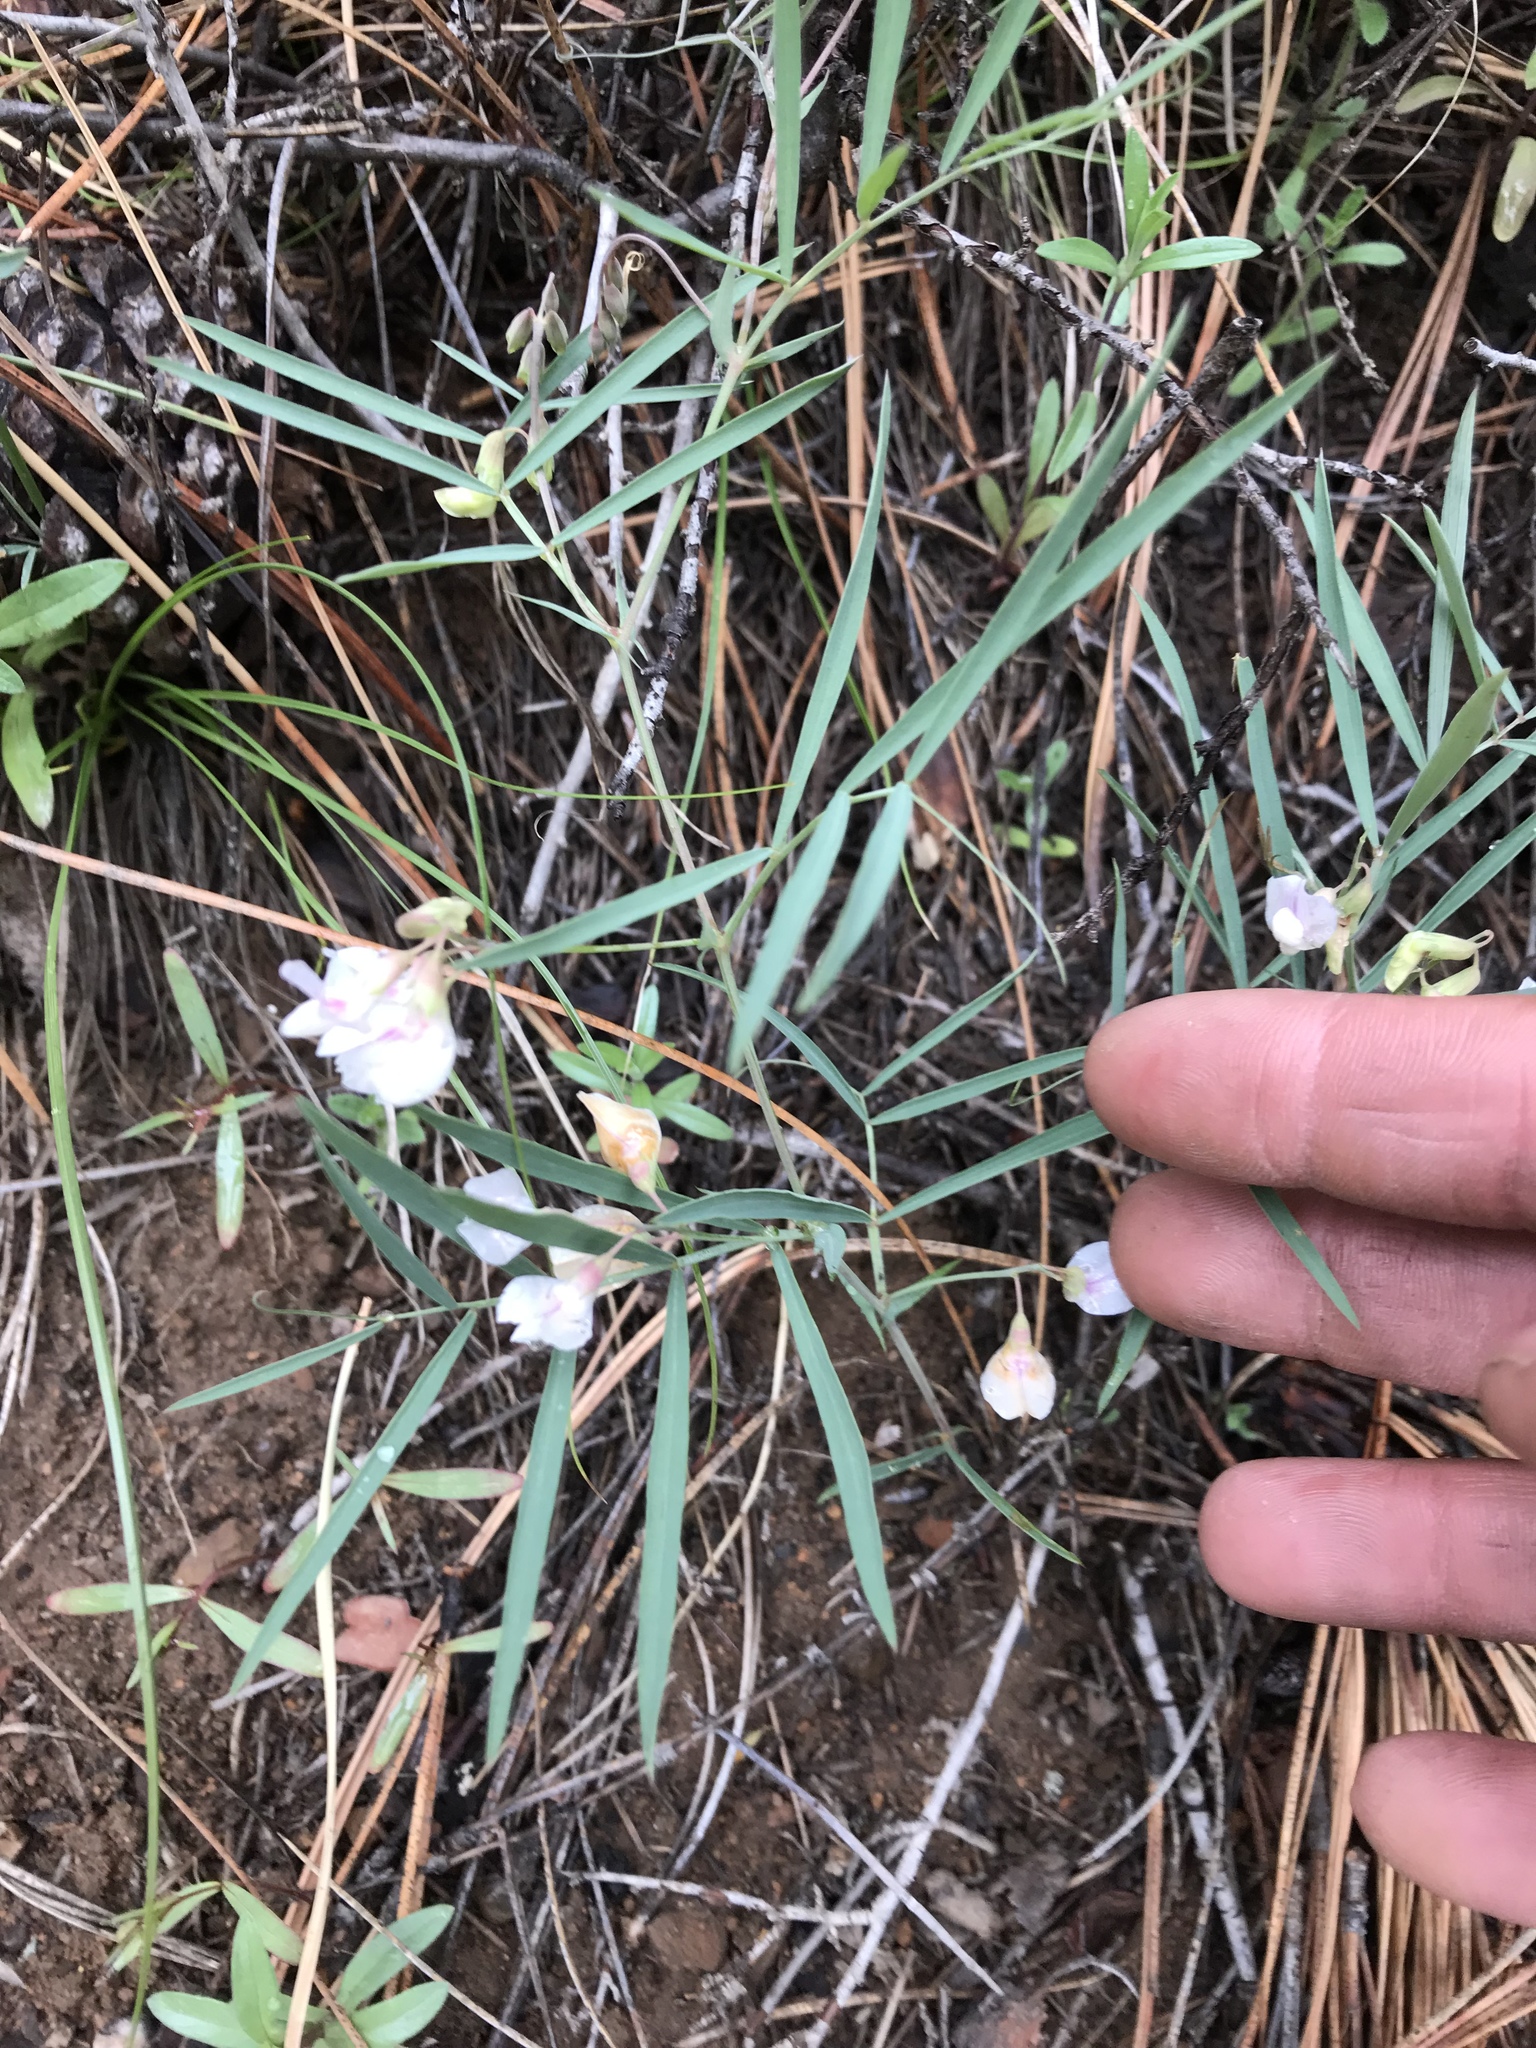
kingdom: Plantae
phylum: Tracheophyta
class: Magnoliopsida
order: Fabales
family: Fabaceae
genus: Lathyrus
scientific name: Lathyrus lanszwertii
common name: Lanszwert's vetchling
